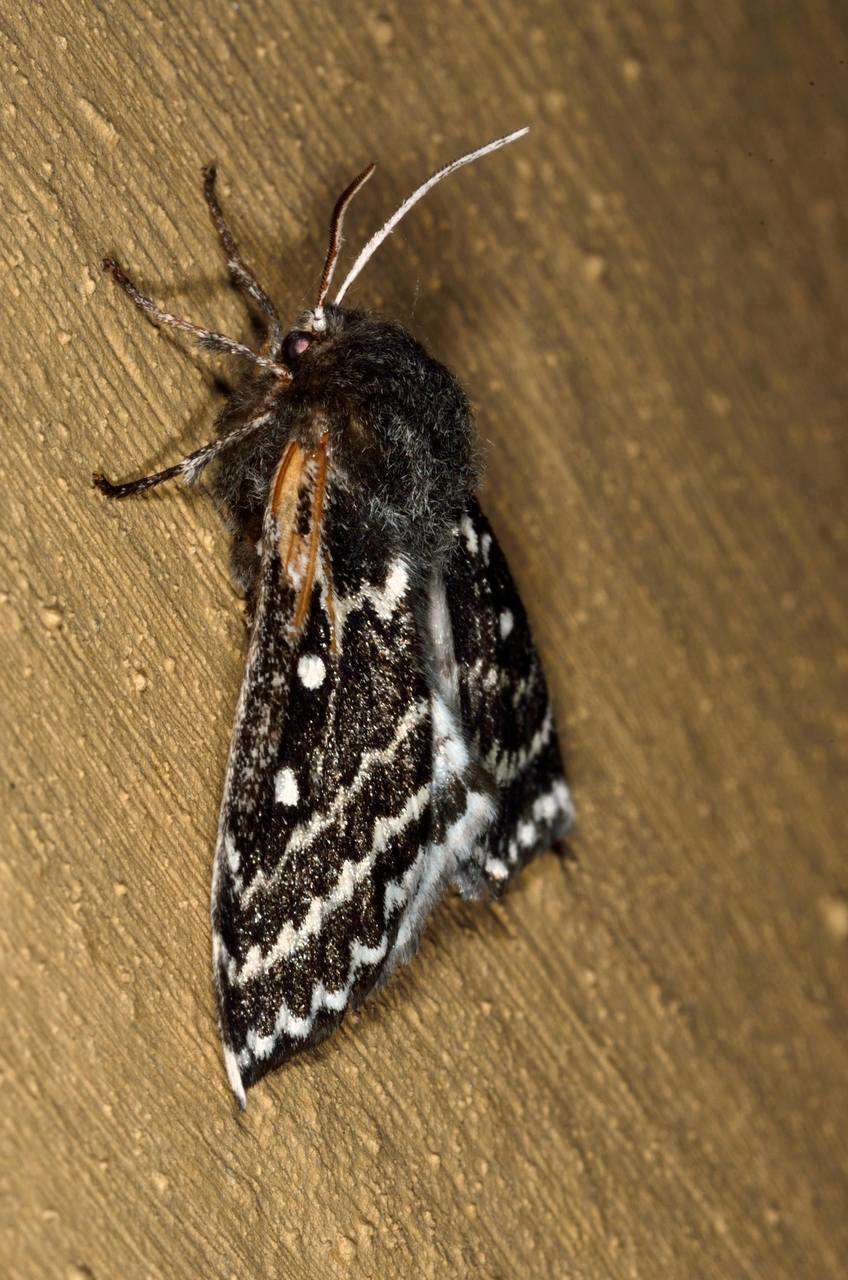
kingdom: Animalia
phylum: Arthropoda
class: Insecta
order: Lepidoptera
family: Anthelidae
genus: Anthela
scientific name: Anthela denticulata
